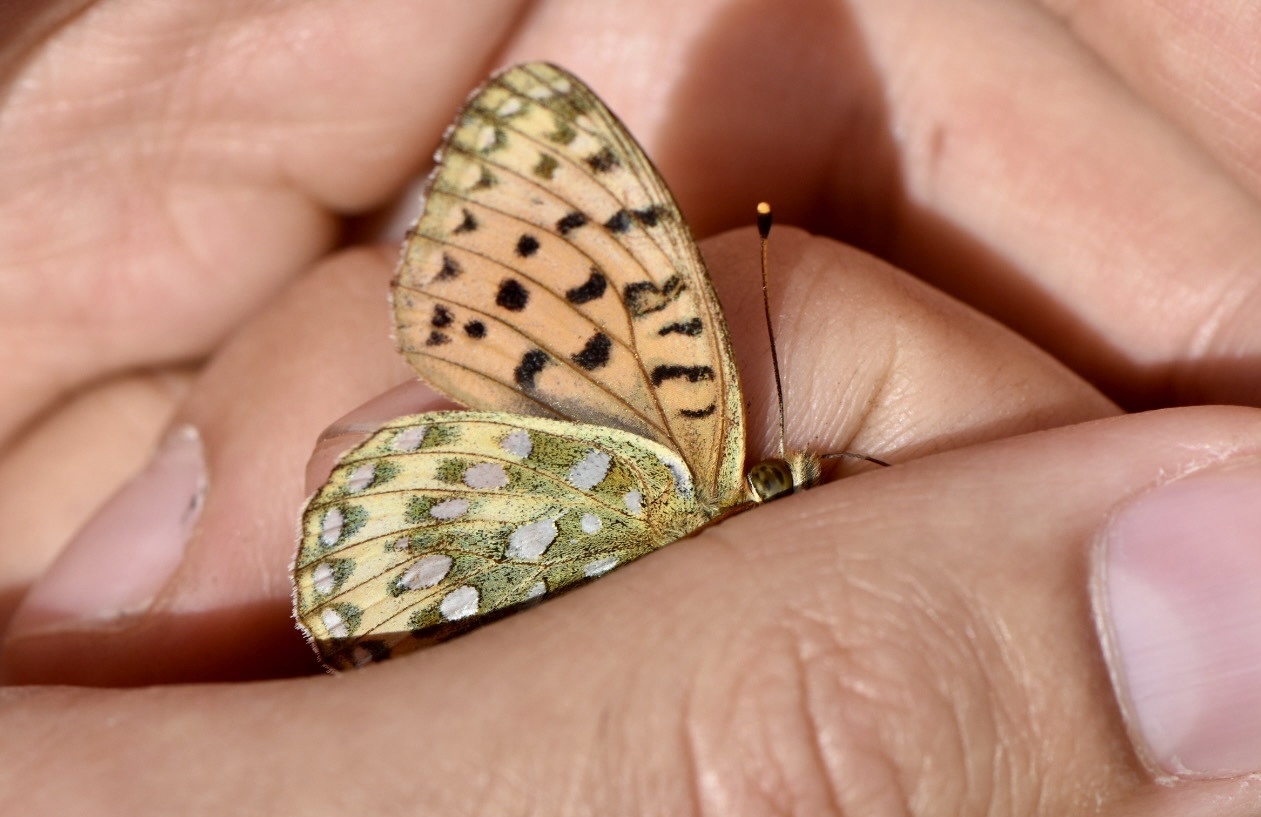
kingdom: Animalia
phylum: Arthropoda
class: Insecta
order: Lepidoptera
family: Nymphalidae
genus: Speyeria
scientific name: Speyeria aglaja
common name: Dark green fritillary
